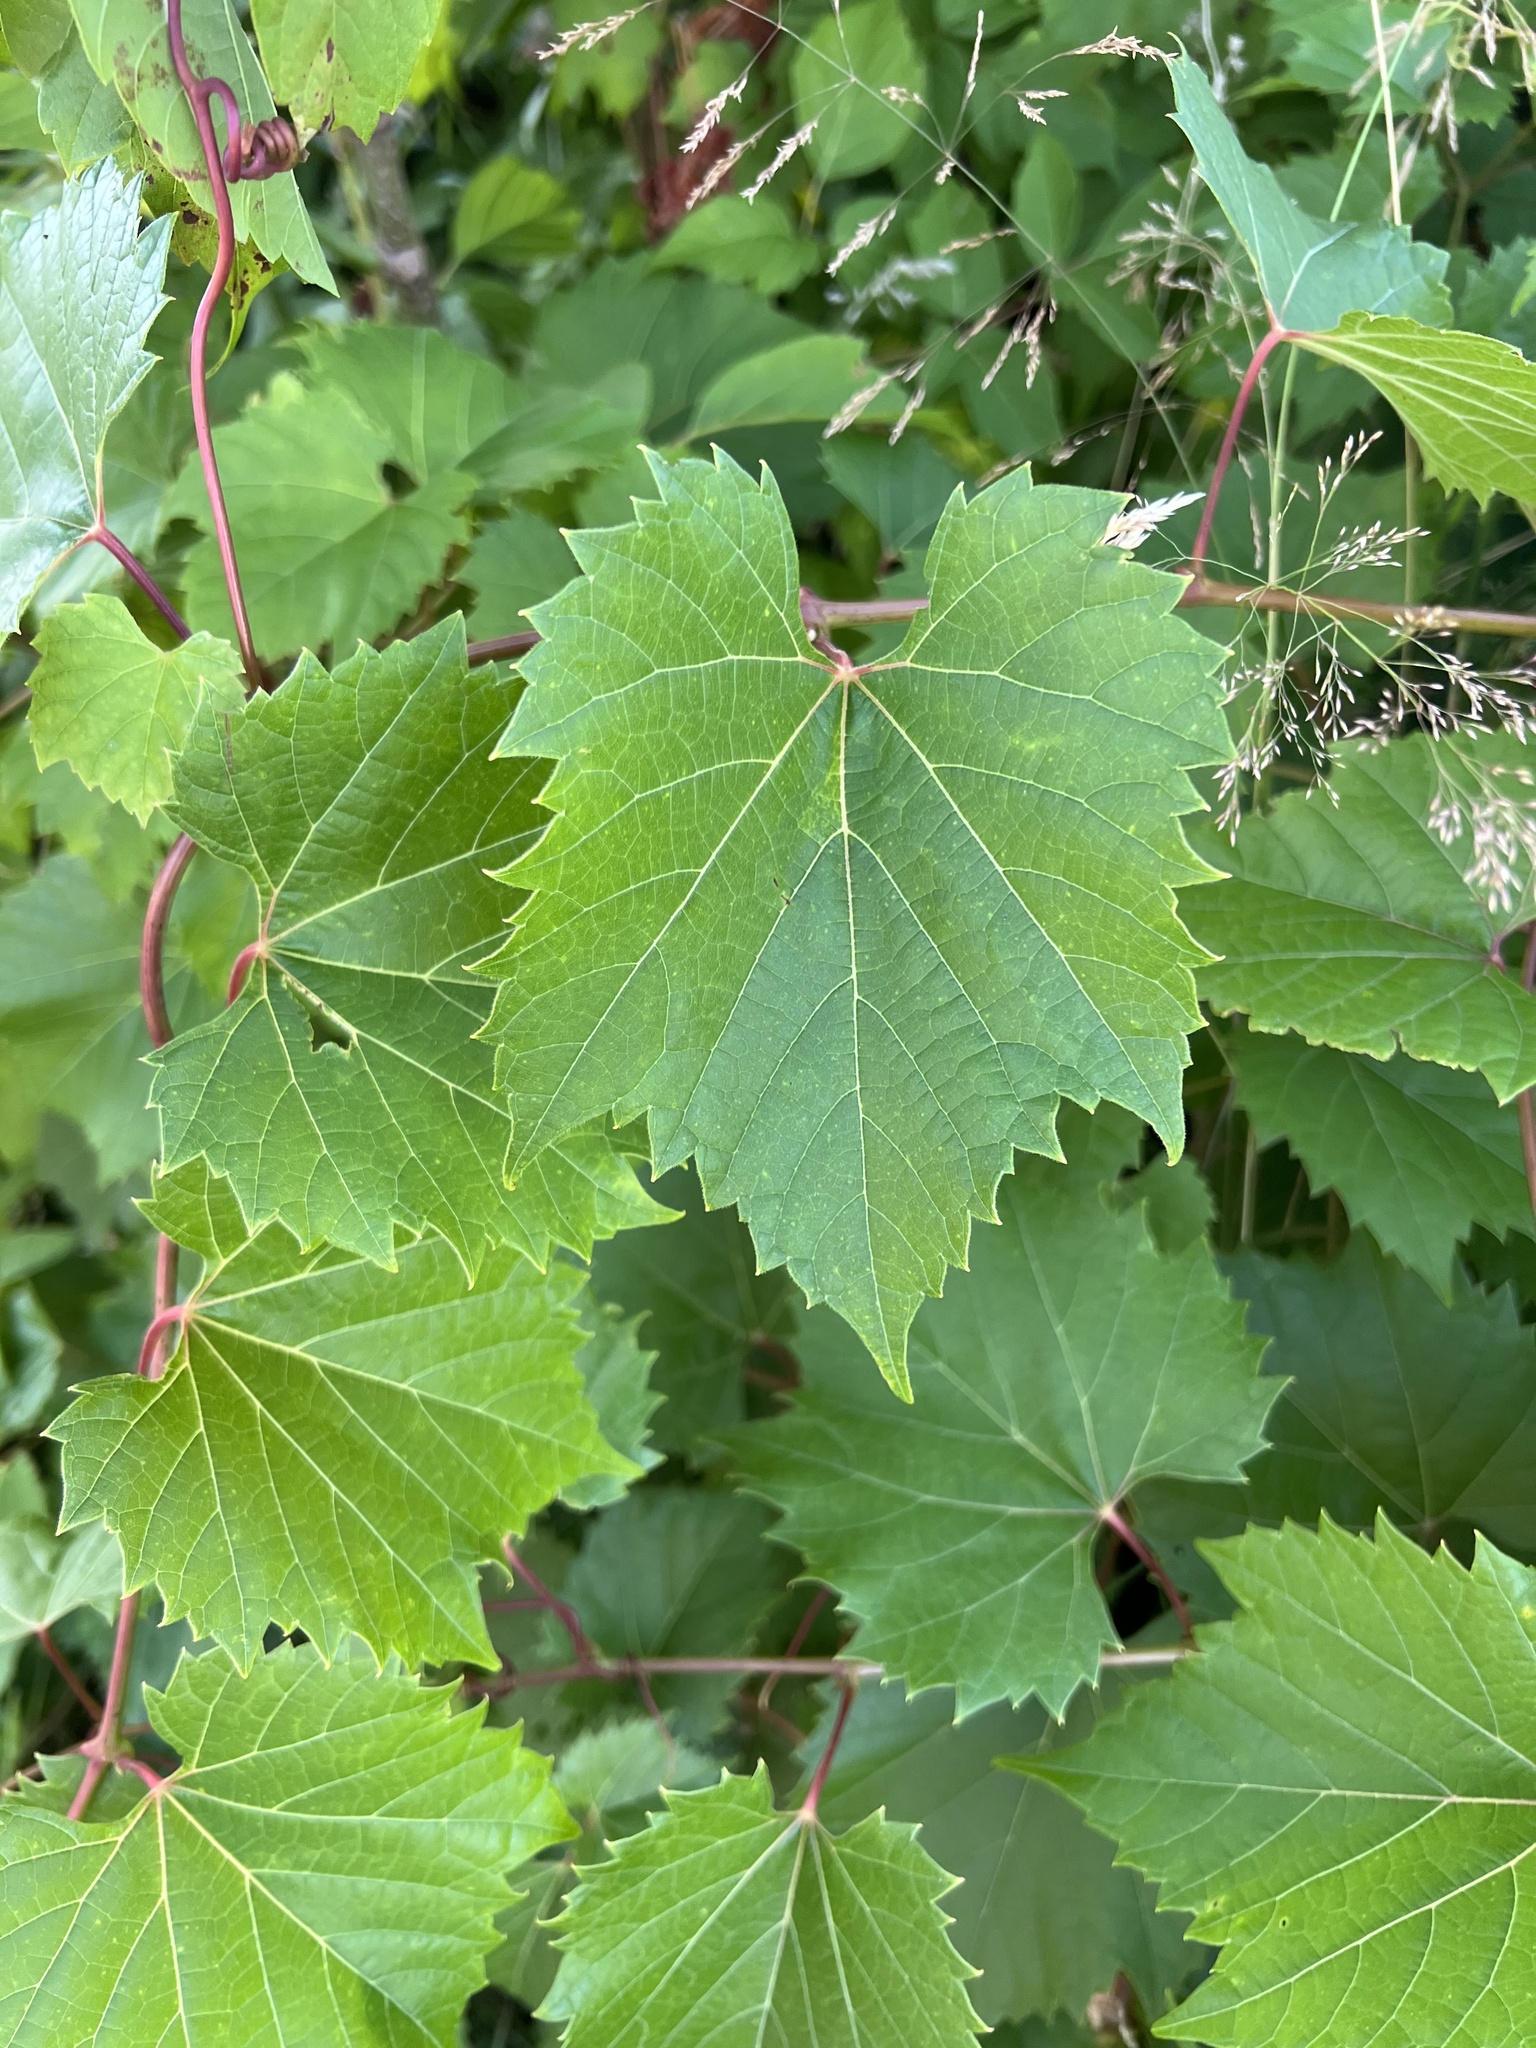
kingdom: Plantae
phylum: Tracheophyta
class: Magnoliopsida
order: Vitales
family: Vitaceae
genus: Vitis
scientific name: Vitis riparia
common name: Frost grape
